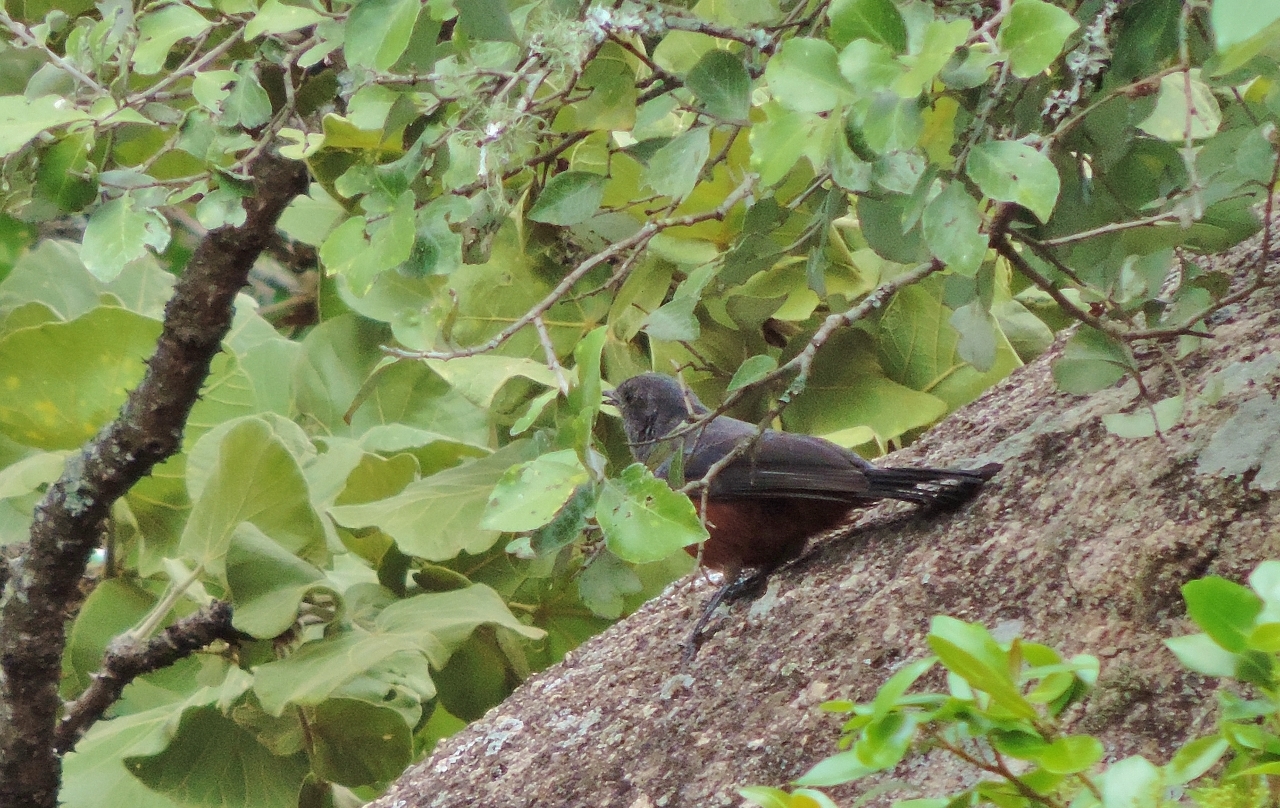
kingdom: Animalia
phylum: Chordata
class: Aves
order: Passeriformes
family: Muscicapidae
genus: Thamnolaea
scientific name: Thamnolaea cinnamomeiventris
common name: Mocking cliff chat
